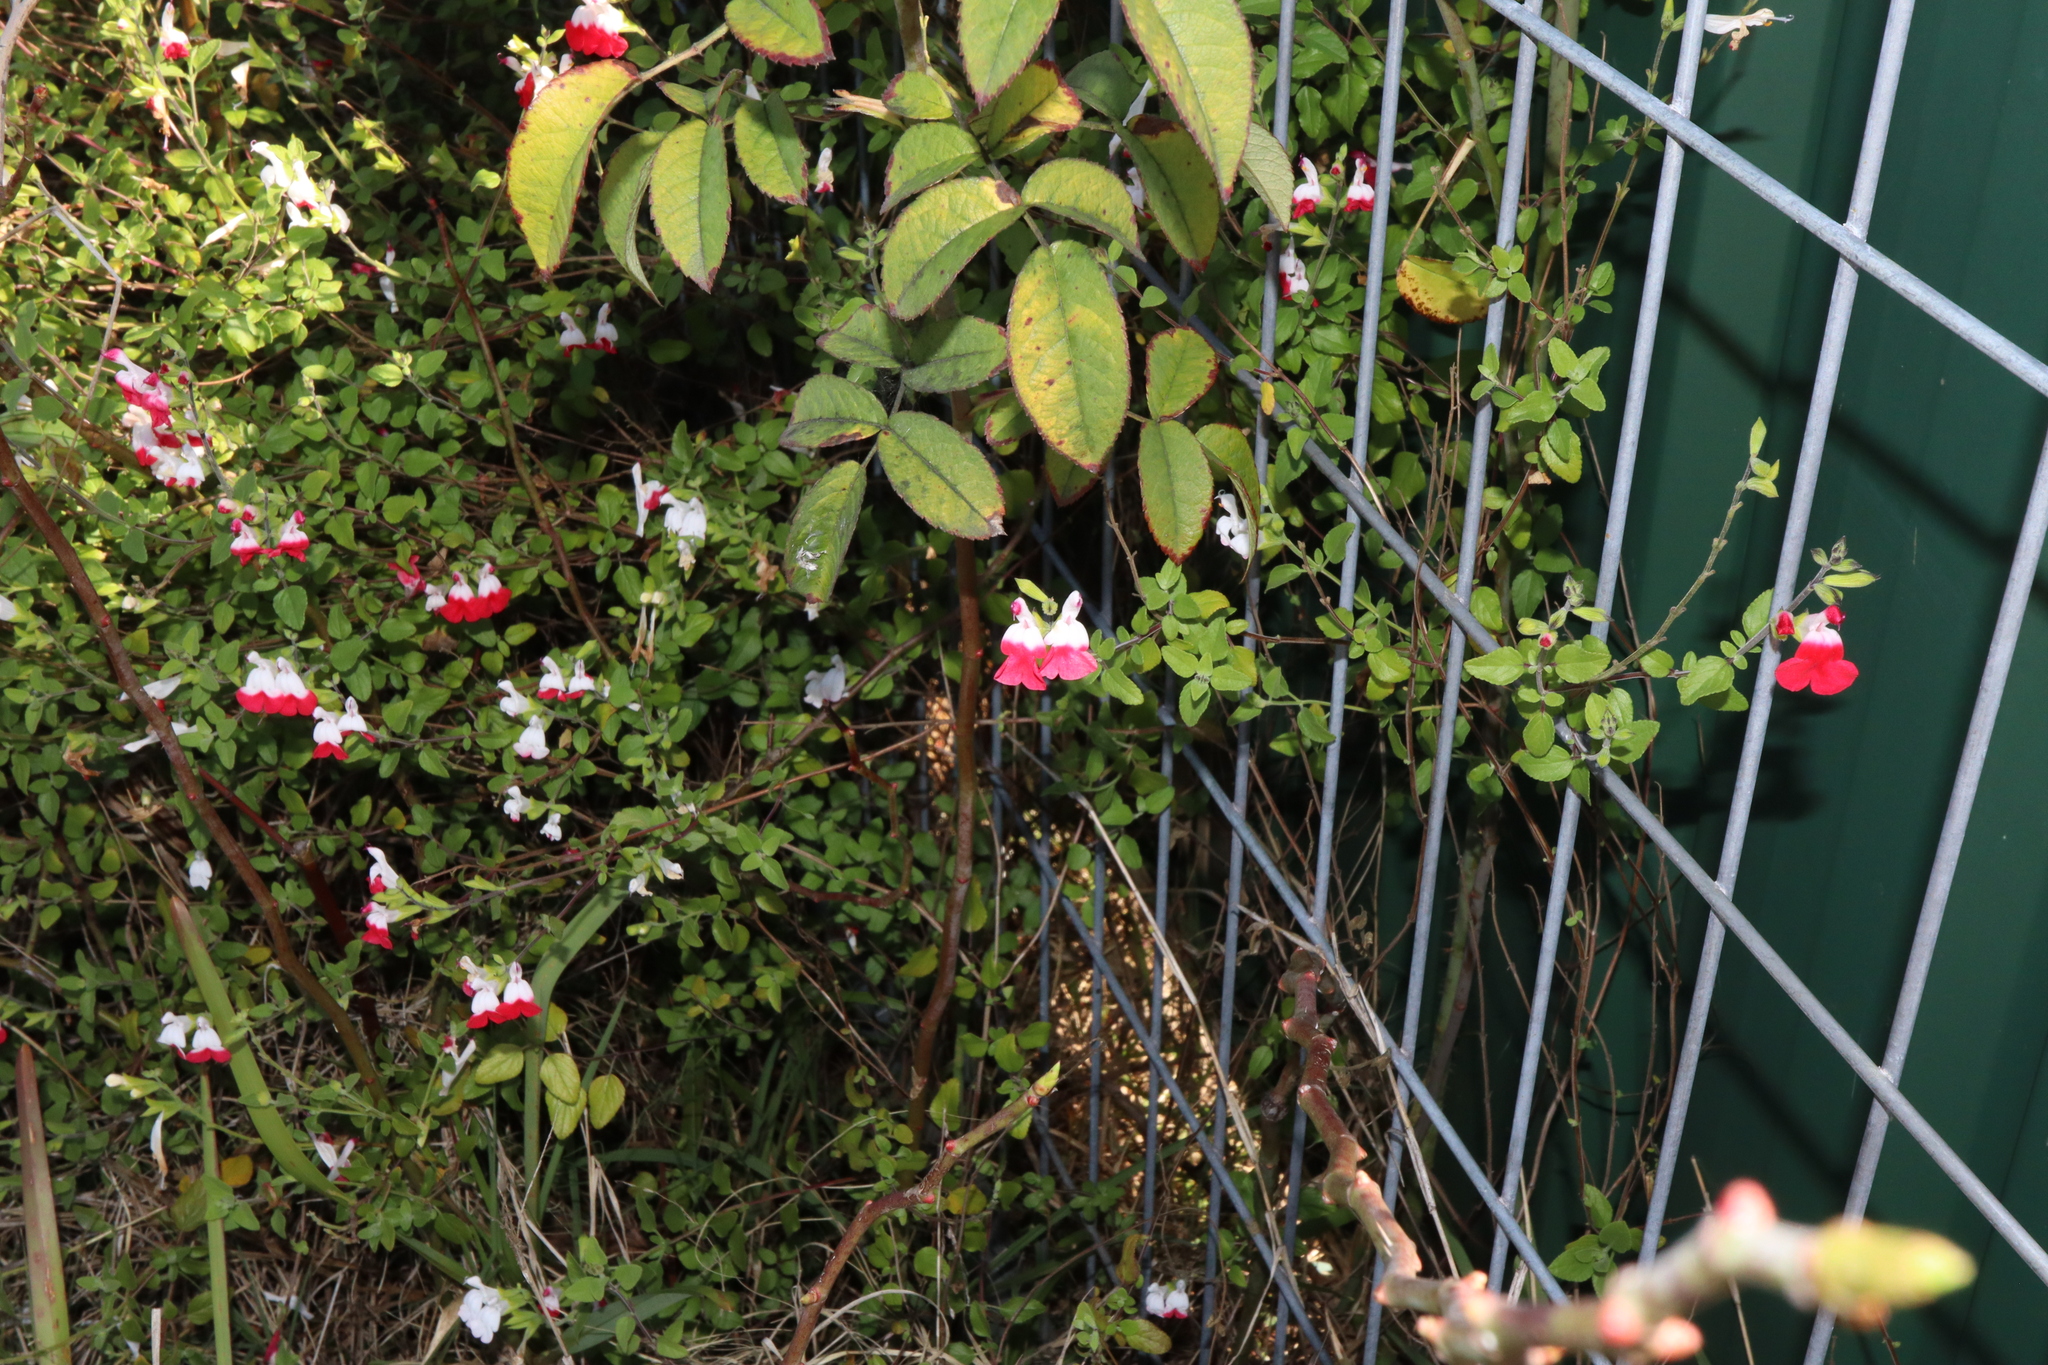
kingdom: Plantae
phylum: Tracheophyta
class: Magnoliopsida
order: Lamiales
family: Lamiaceae
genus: Salvia
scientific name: Salvia microphylla
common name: Baby sage
